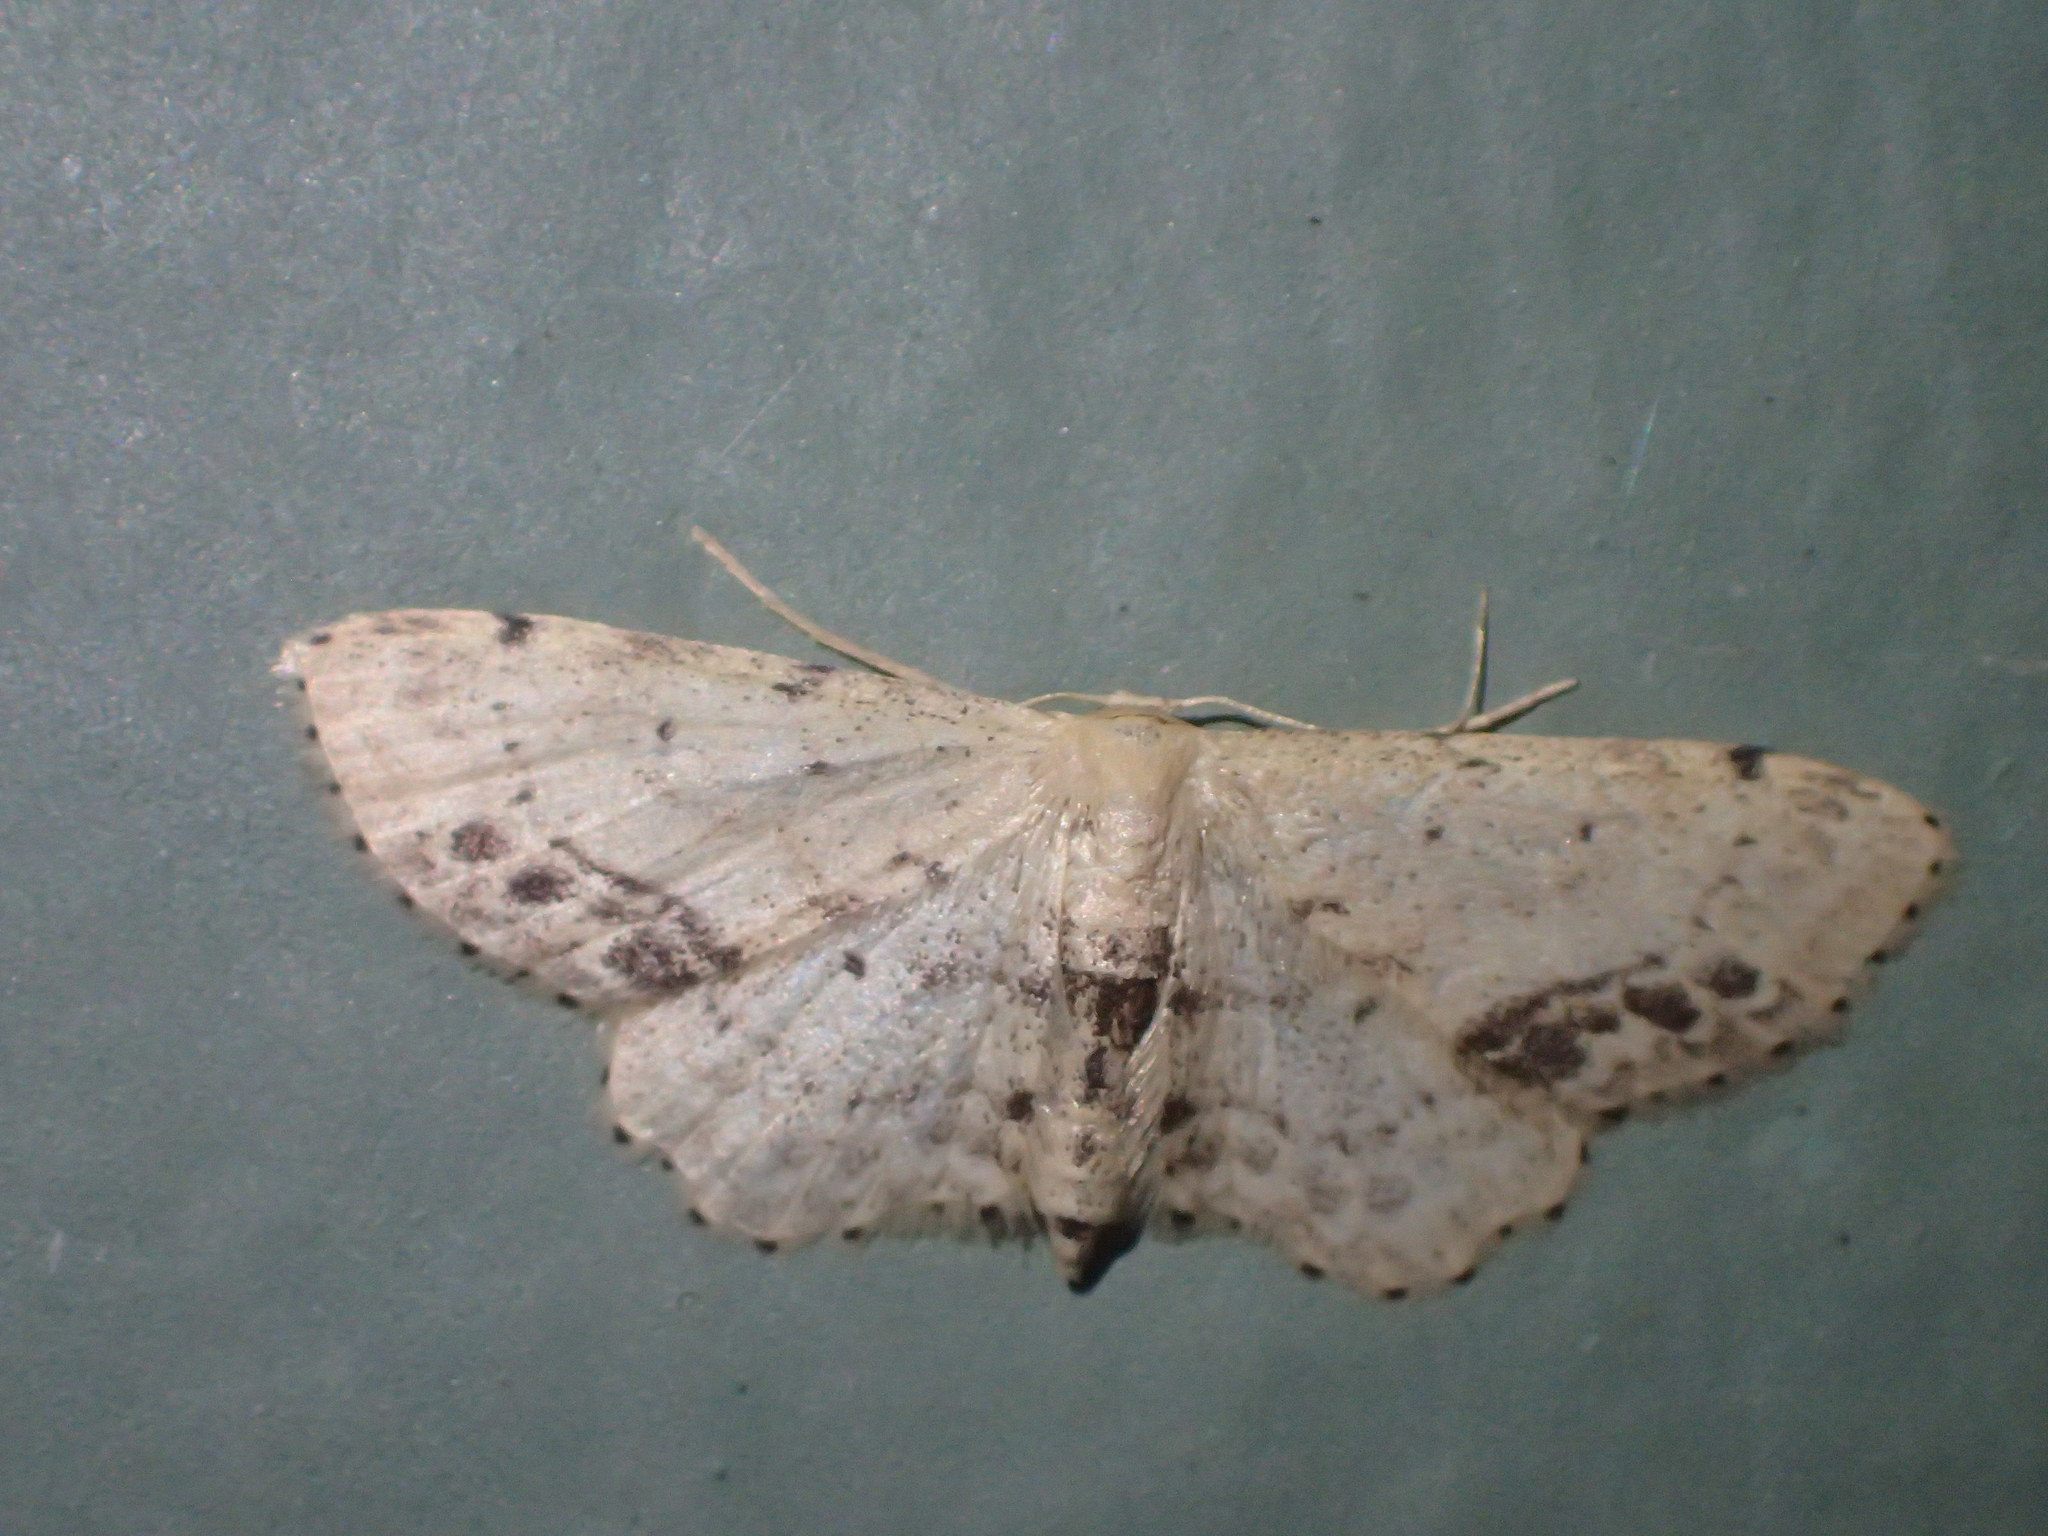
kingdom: Animalia
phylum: Arthropoda
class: Insecta
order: Lepidoptera
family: Geometridae
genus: Idaea
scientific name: Idaea dimidiata
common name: Single-dotted wave
